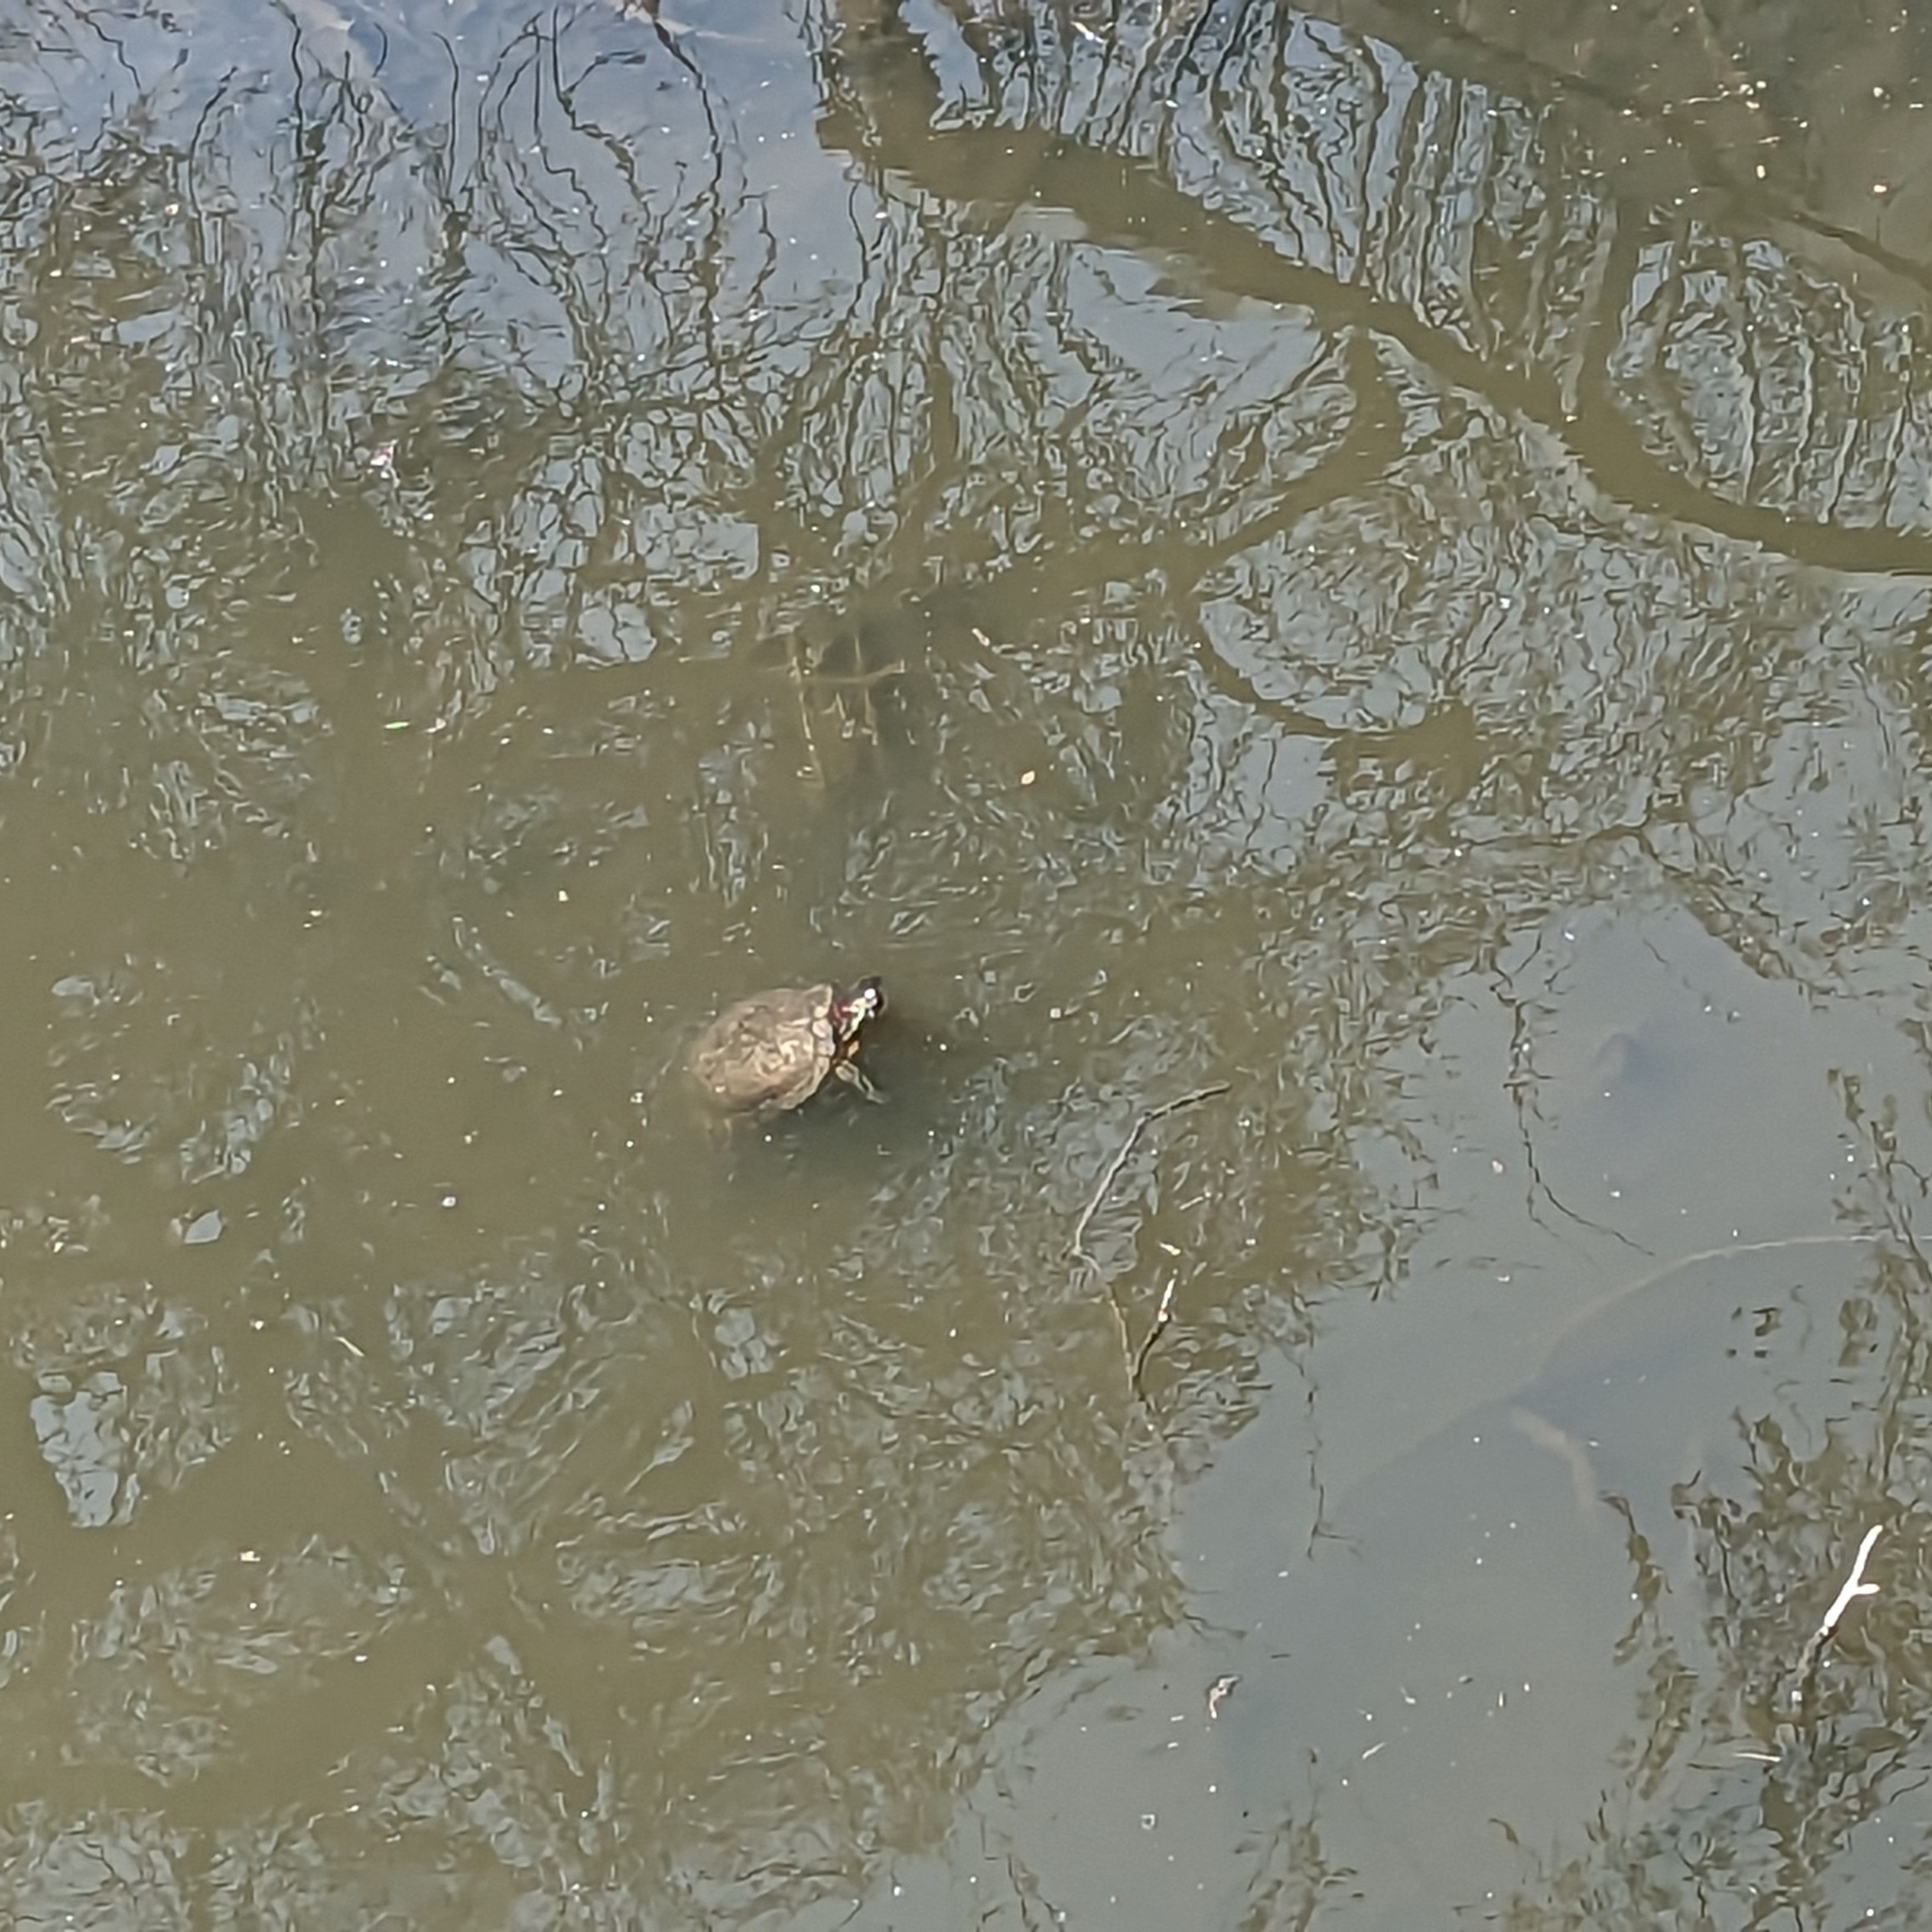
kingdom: Animalia
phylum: Chordata
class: Testudines
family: Emydidae
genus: Trachemys
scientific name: Trachemys scripta
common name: Slider
